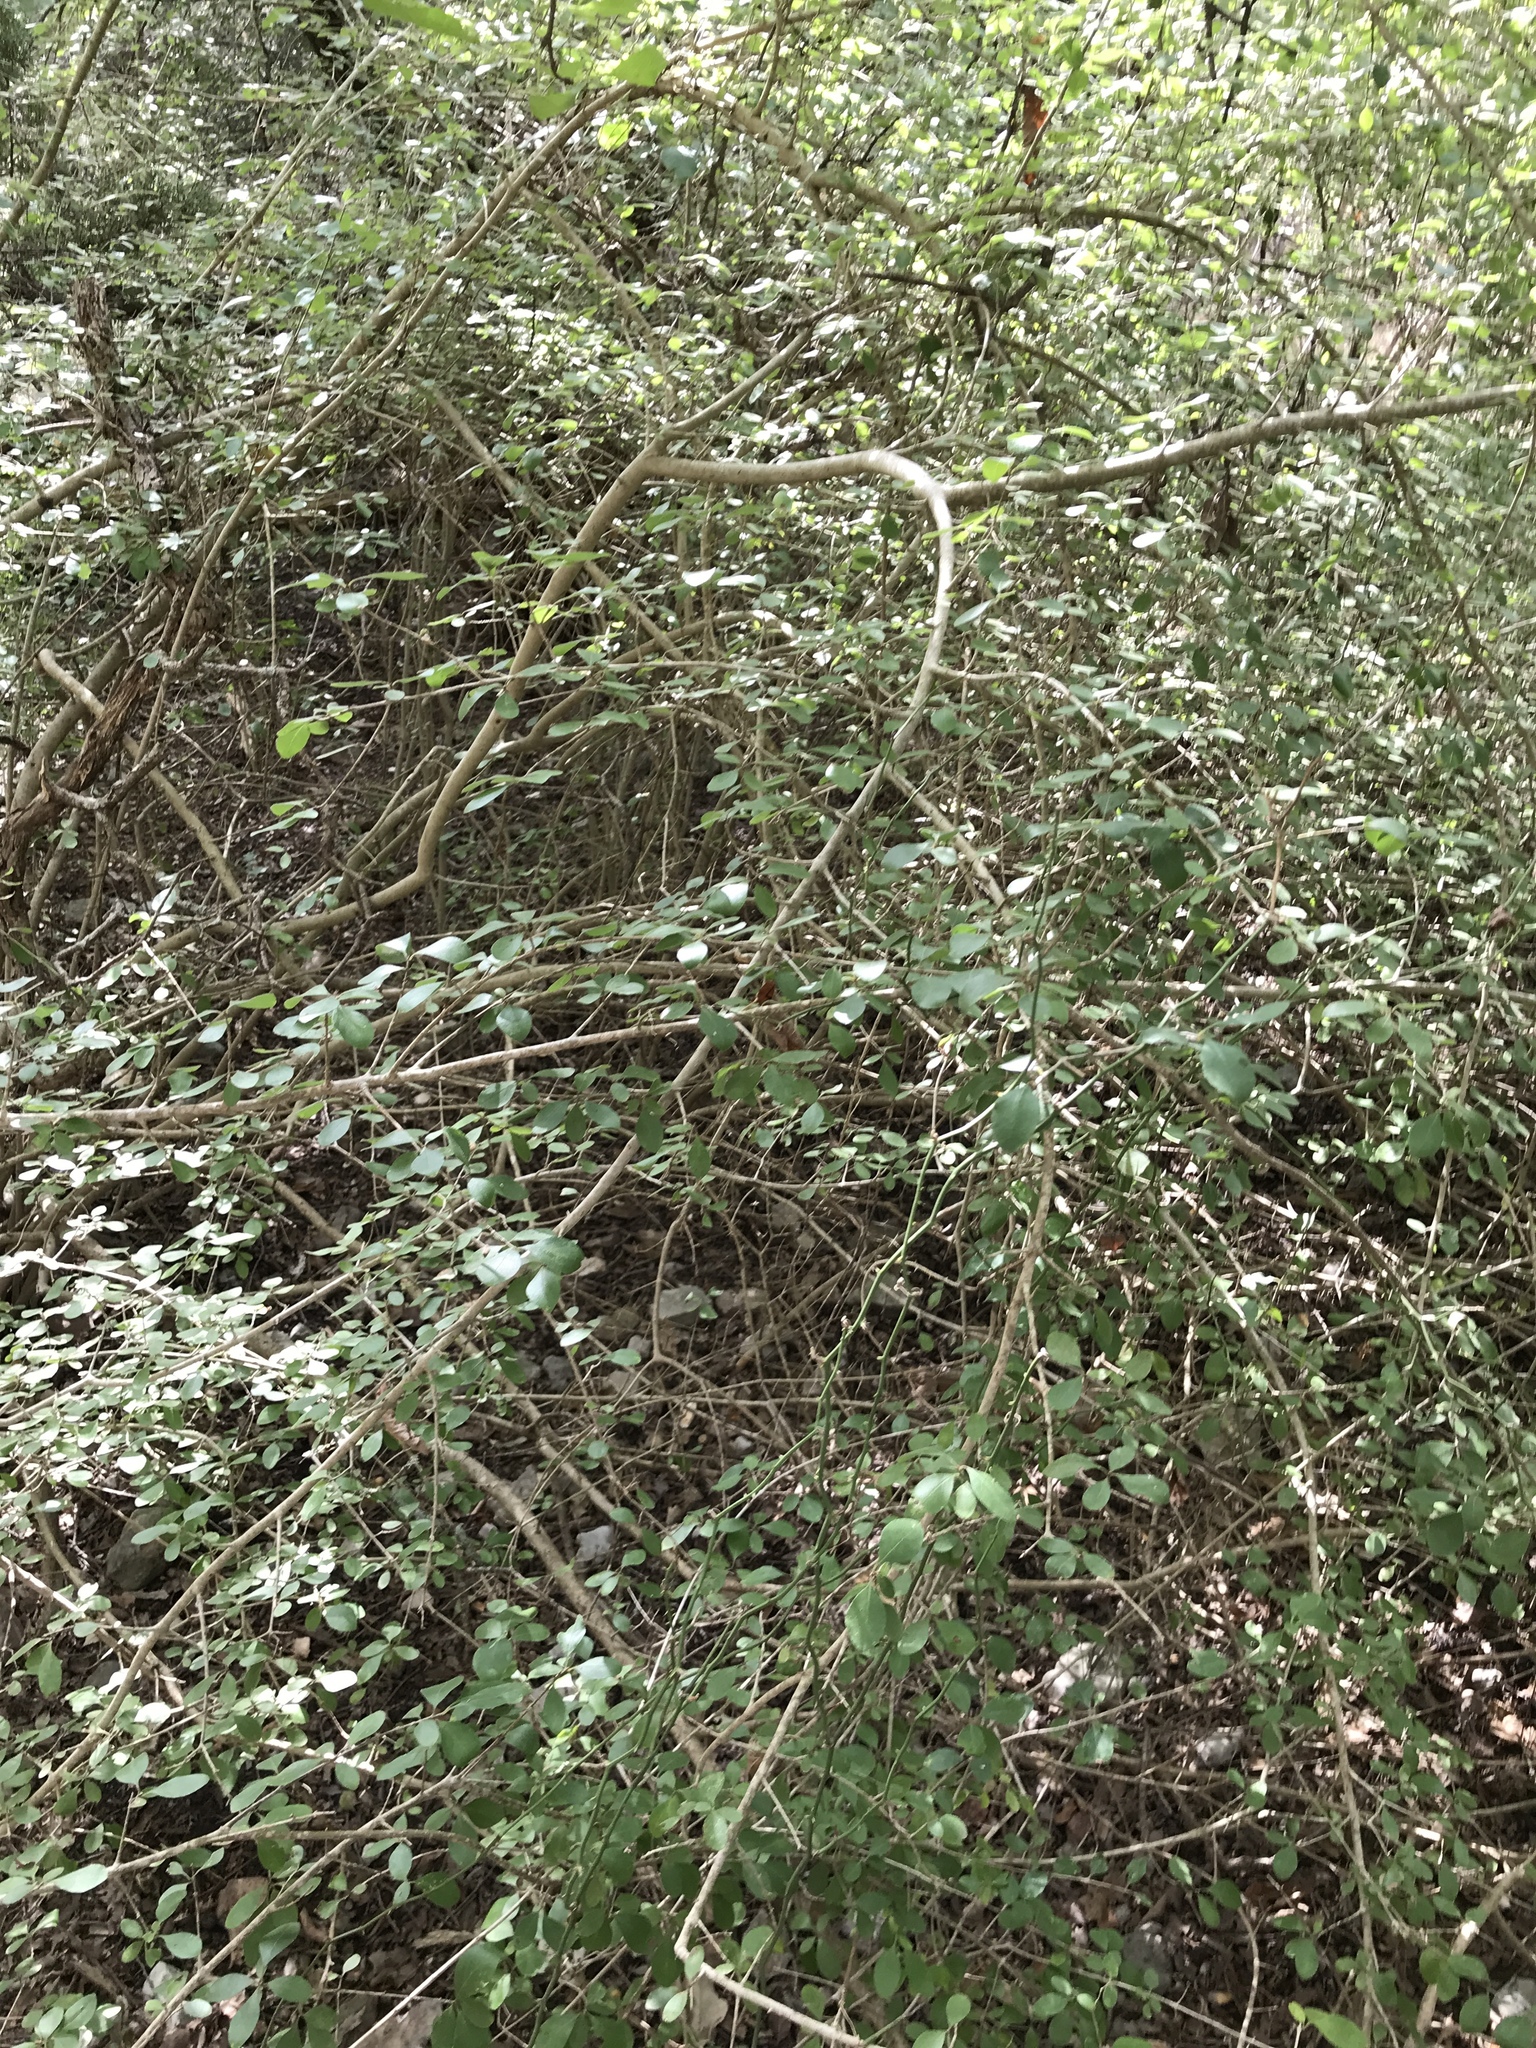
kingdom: Plantae
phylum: Tracheophyta
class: Magnoliopsida
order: Lamiales
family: Oleaceae
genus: Forestiera
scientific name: Forestiera pubescens
